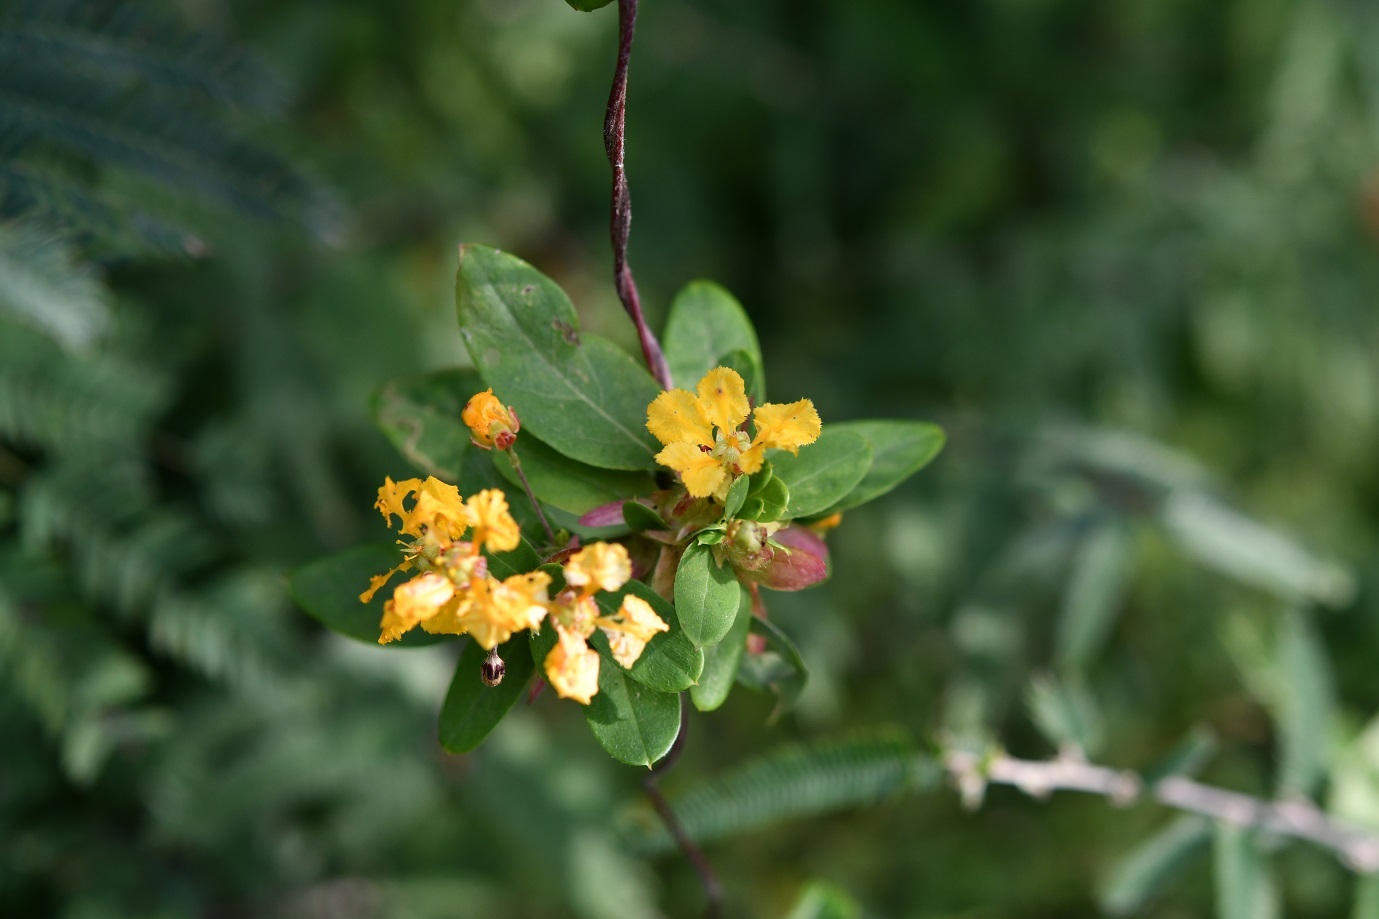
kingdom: Plantae
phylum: Tracheophyta
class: Magnoliopsida
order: Malpighiales
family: Malpighiaceae
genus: Gaudichaudia
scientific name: Gaudichaudia cynanchoides
